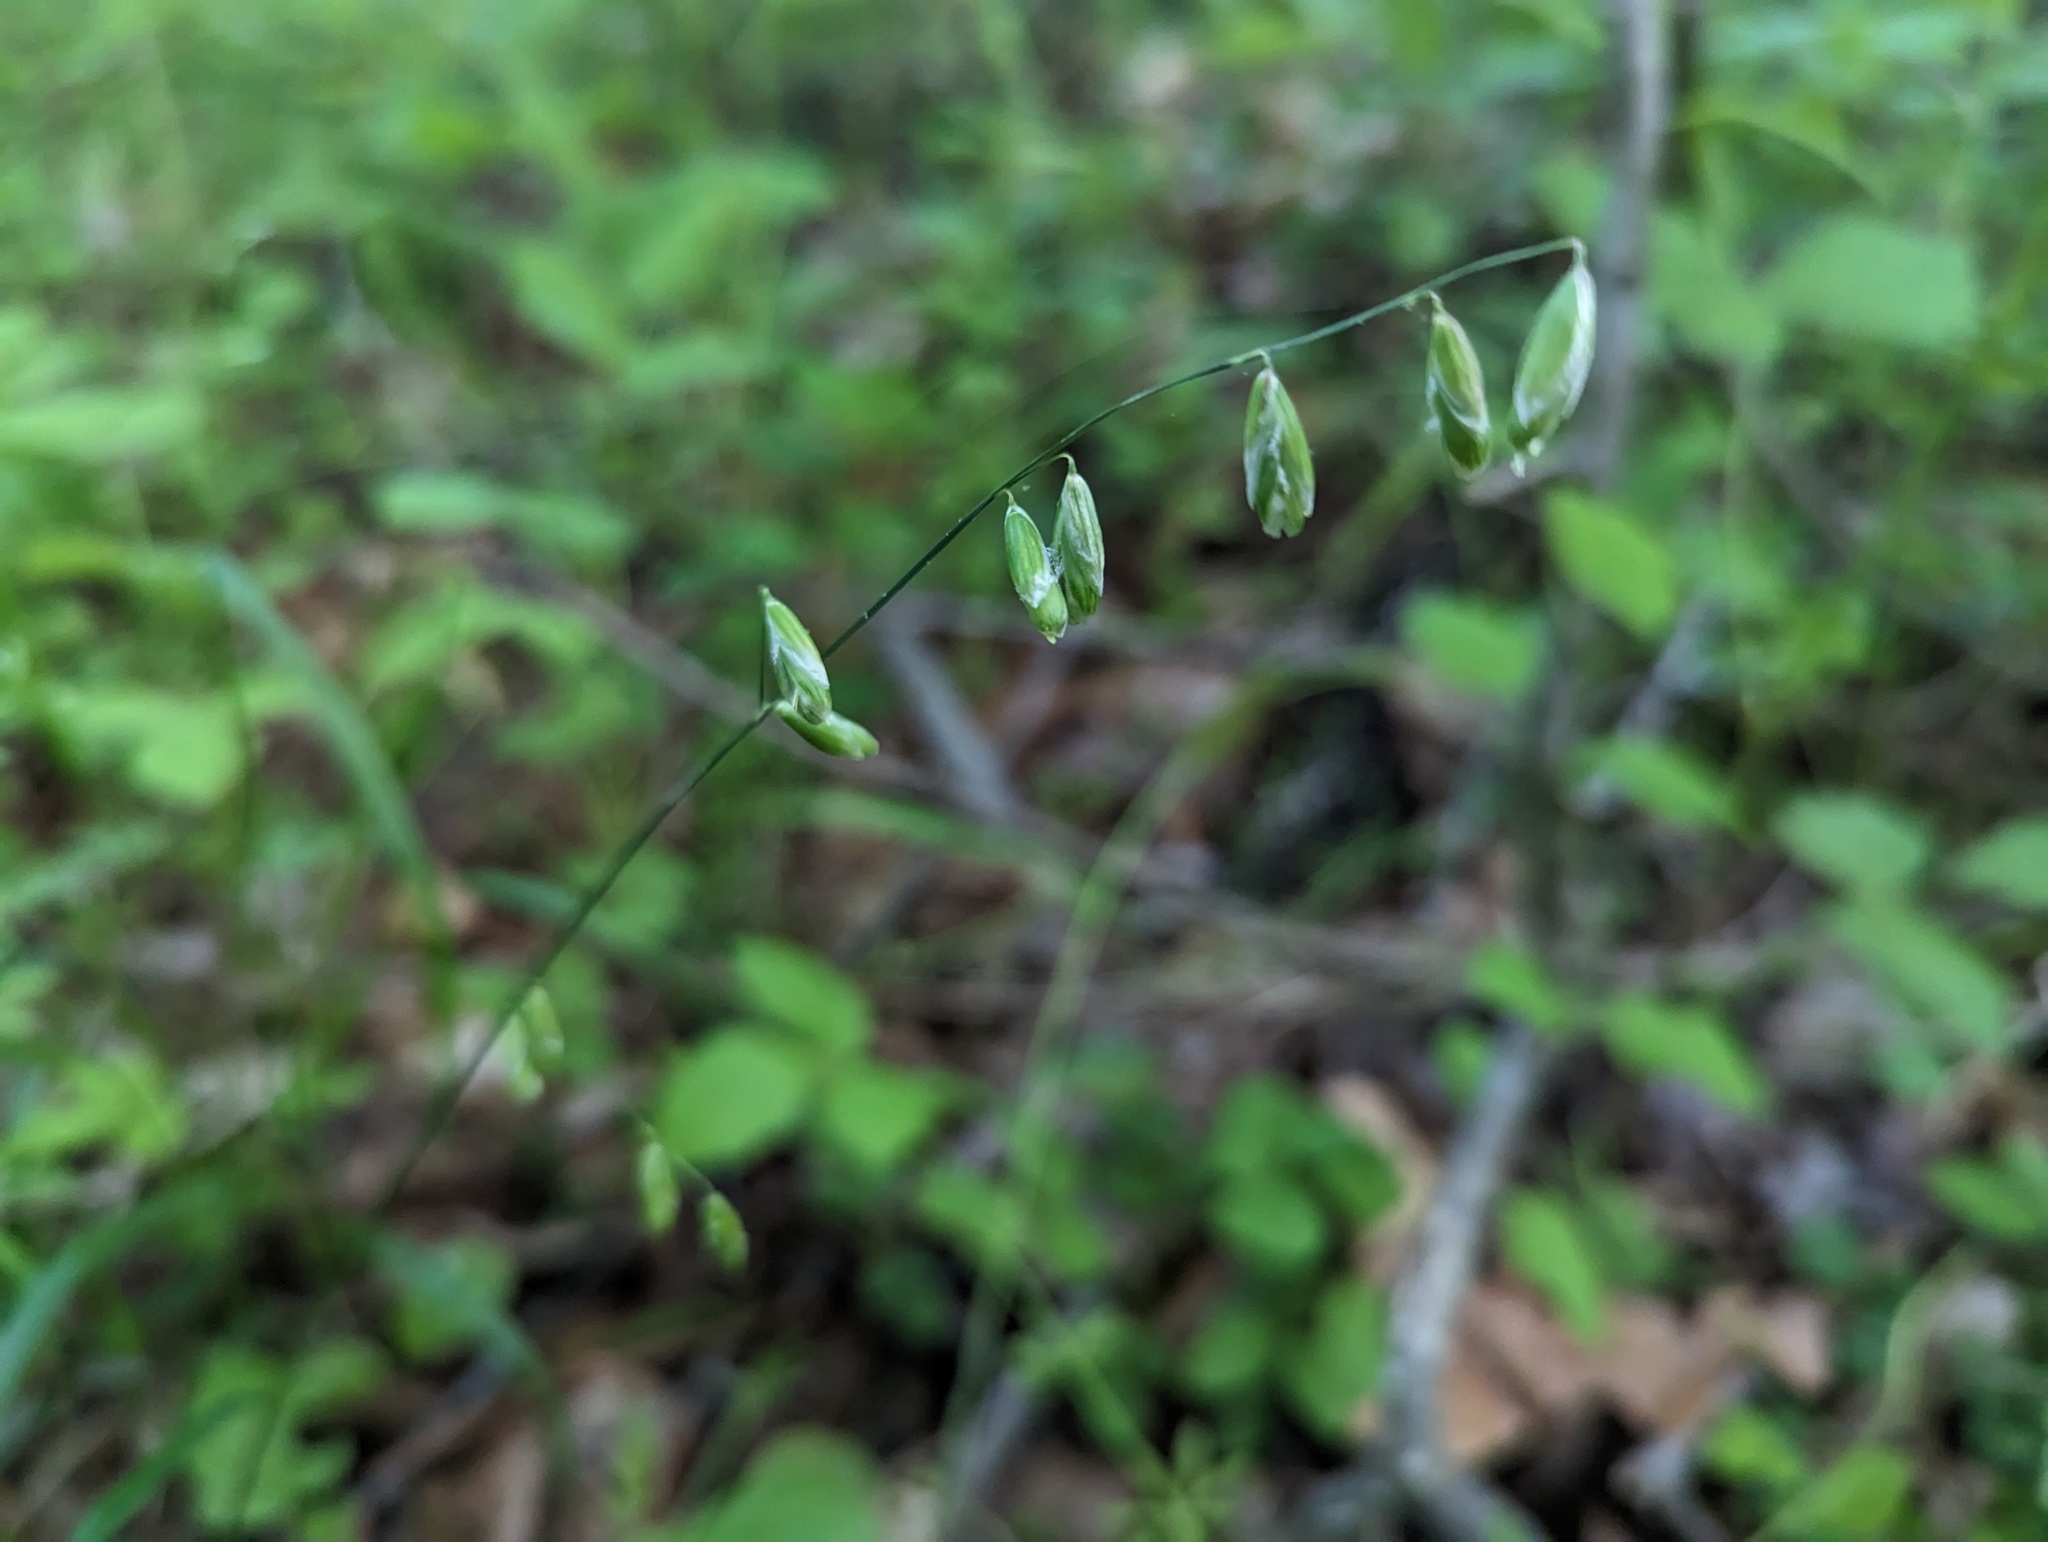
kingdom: Plantae
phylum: Tracheophyta
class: Liliopsida
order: Poales
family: Poaceae
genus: Melica
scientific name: Melica mutica
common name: Two-flower melic
